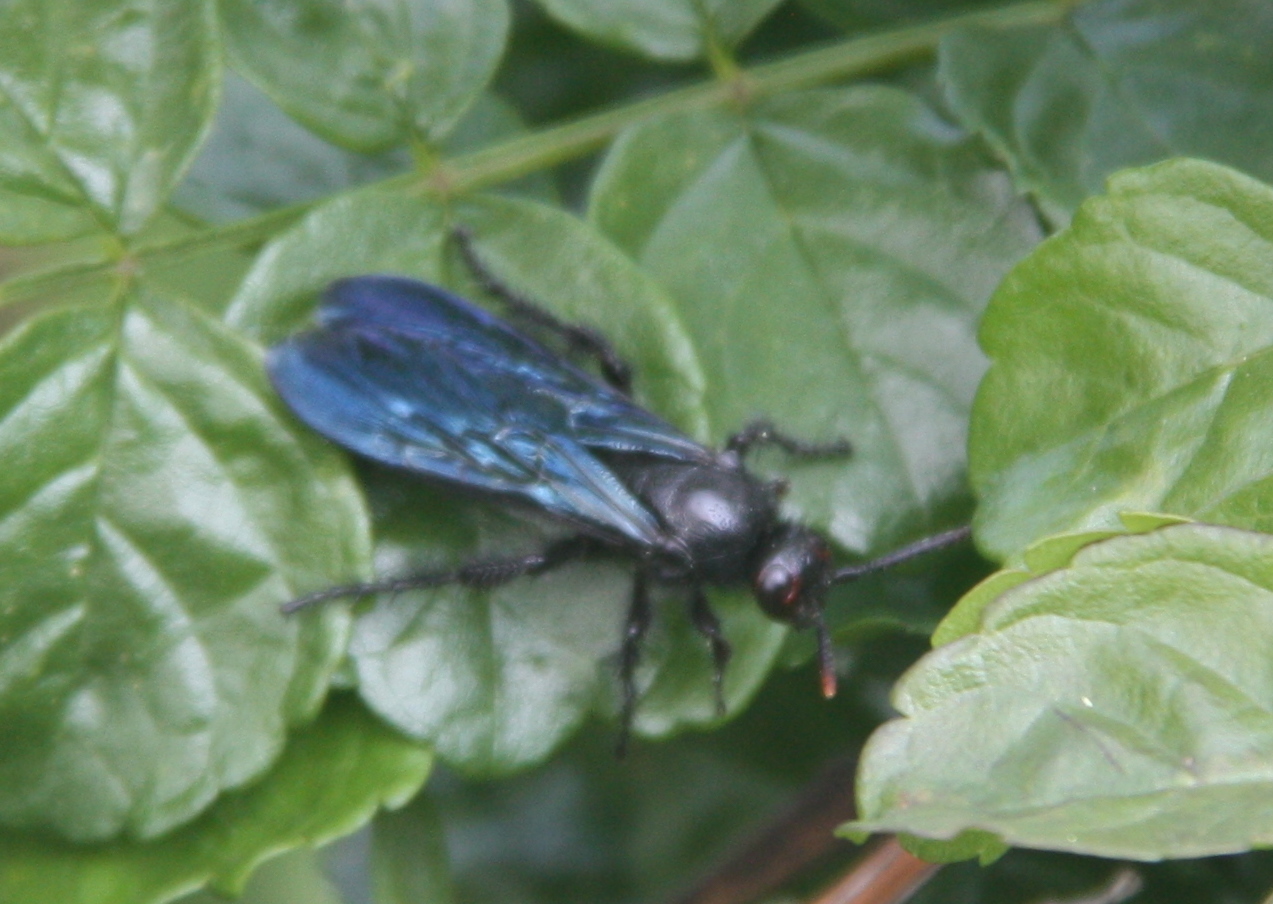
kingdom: Animalia
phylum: Arthropoda
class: Insecta
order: Hymenoptera
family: Scoliidae
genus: Pyrrhoscolia
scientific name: Pyrrhoscolia
